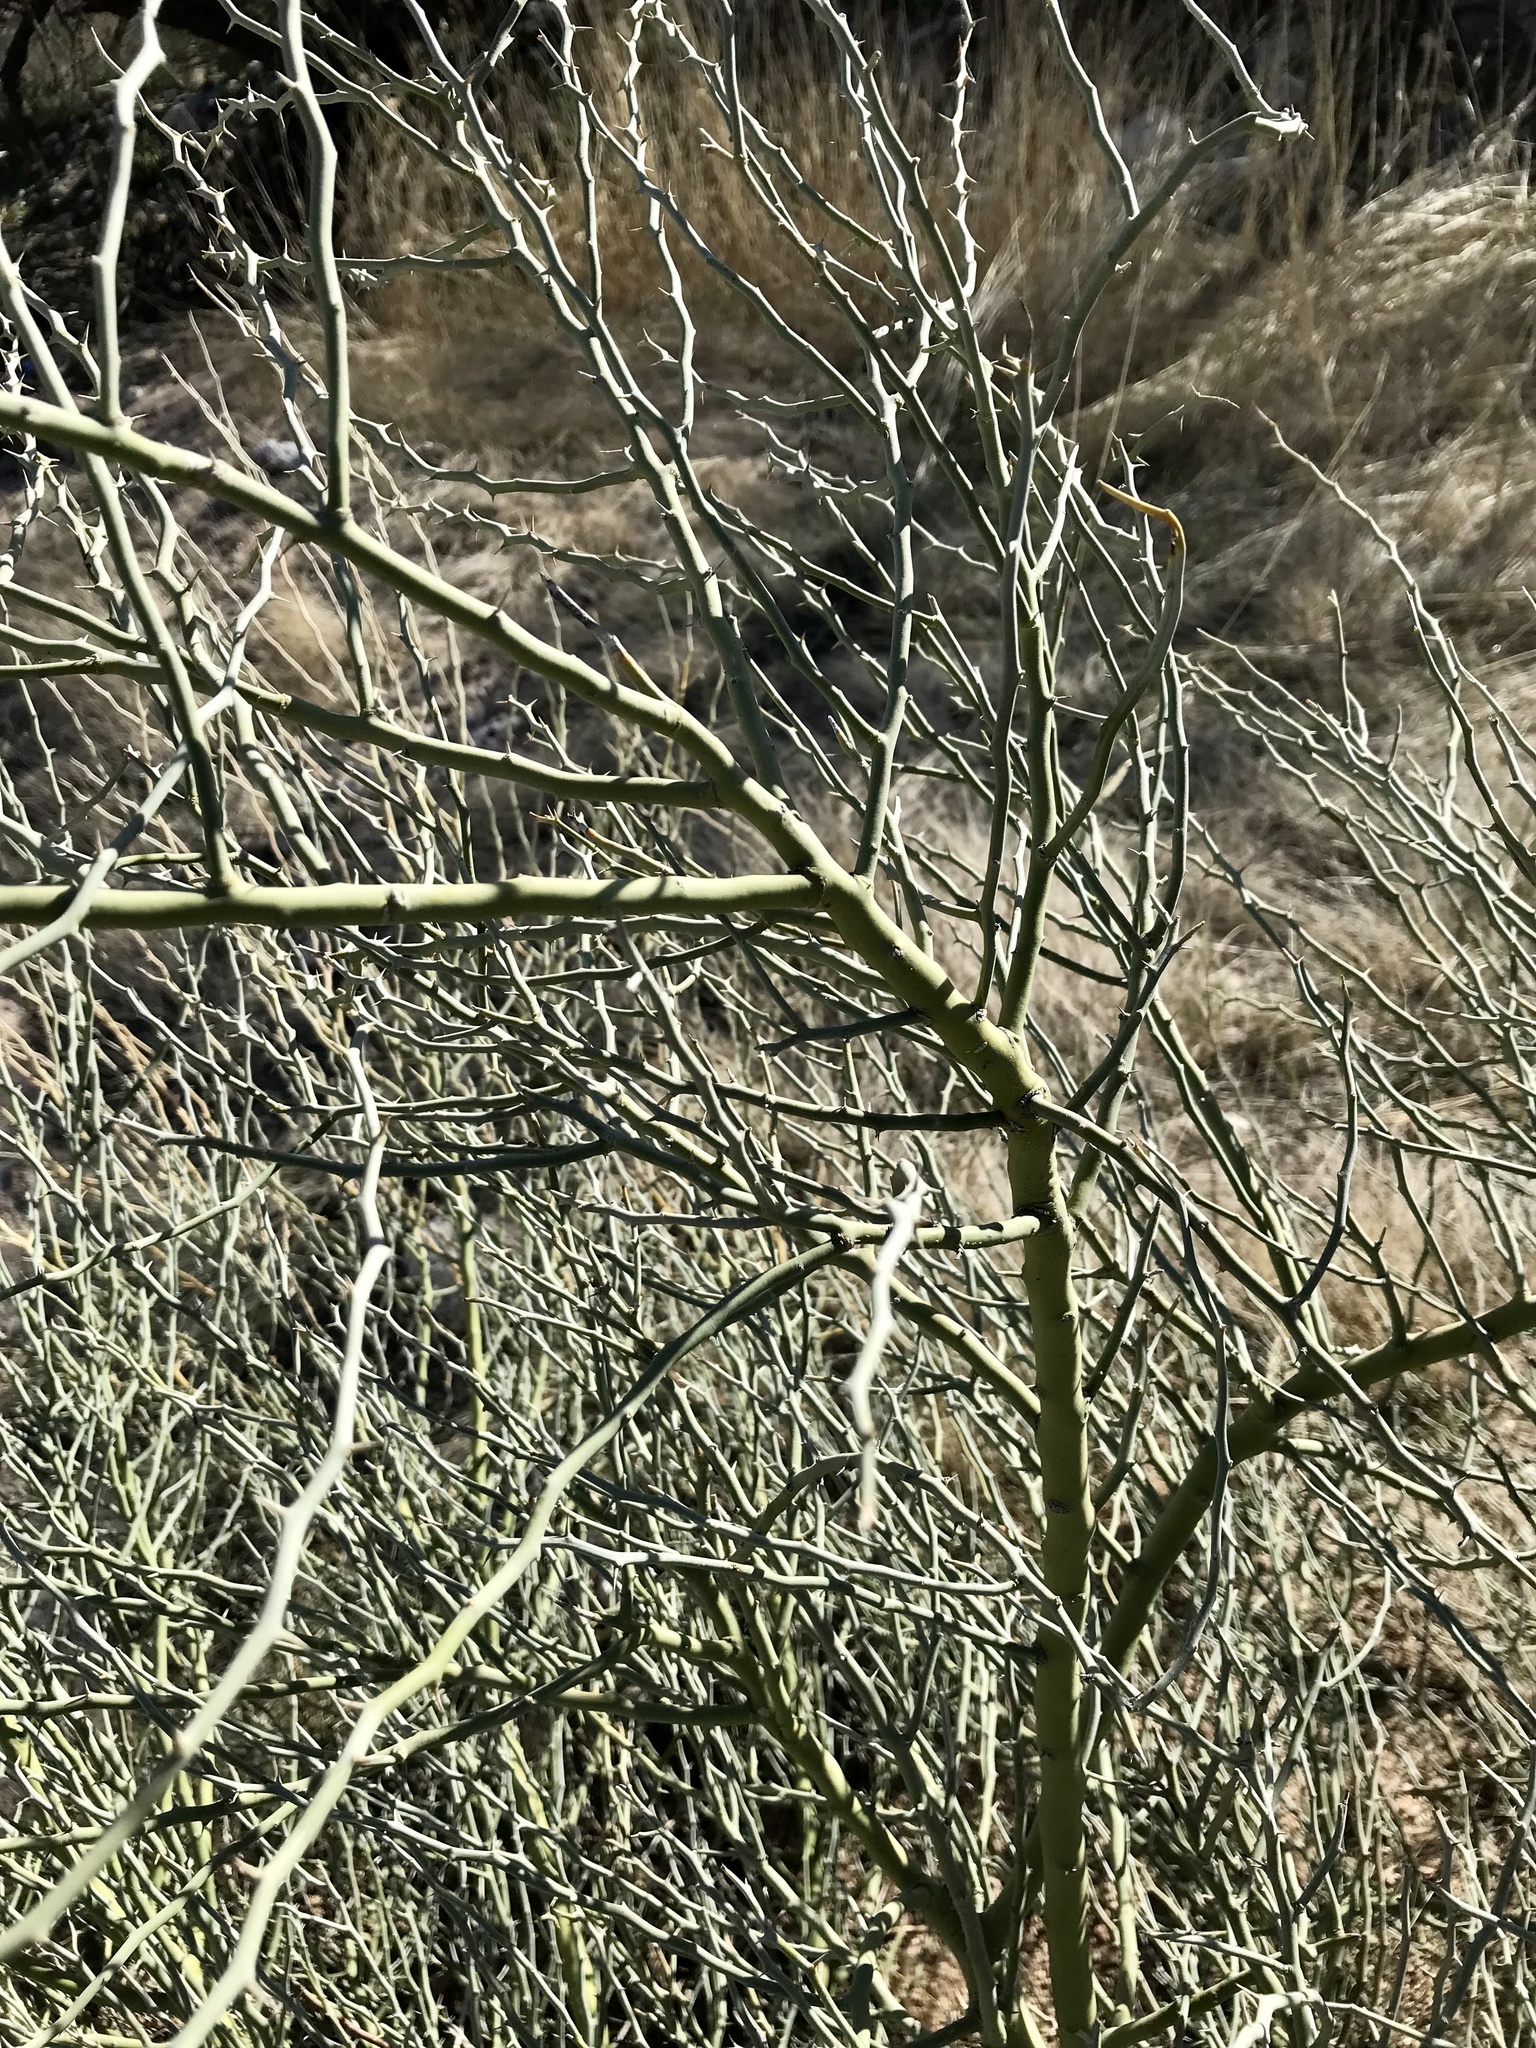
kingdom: Plantae
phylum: Tracheophyta
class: Magnoliopsida
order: Fabales
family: Fabaceae
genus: Parkinsonia
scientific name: Parkinsonia florida
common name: Blue paloverde
